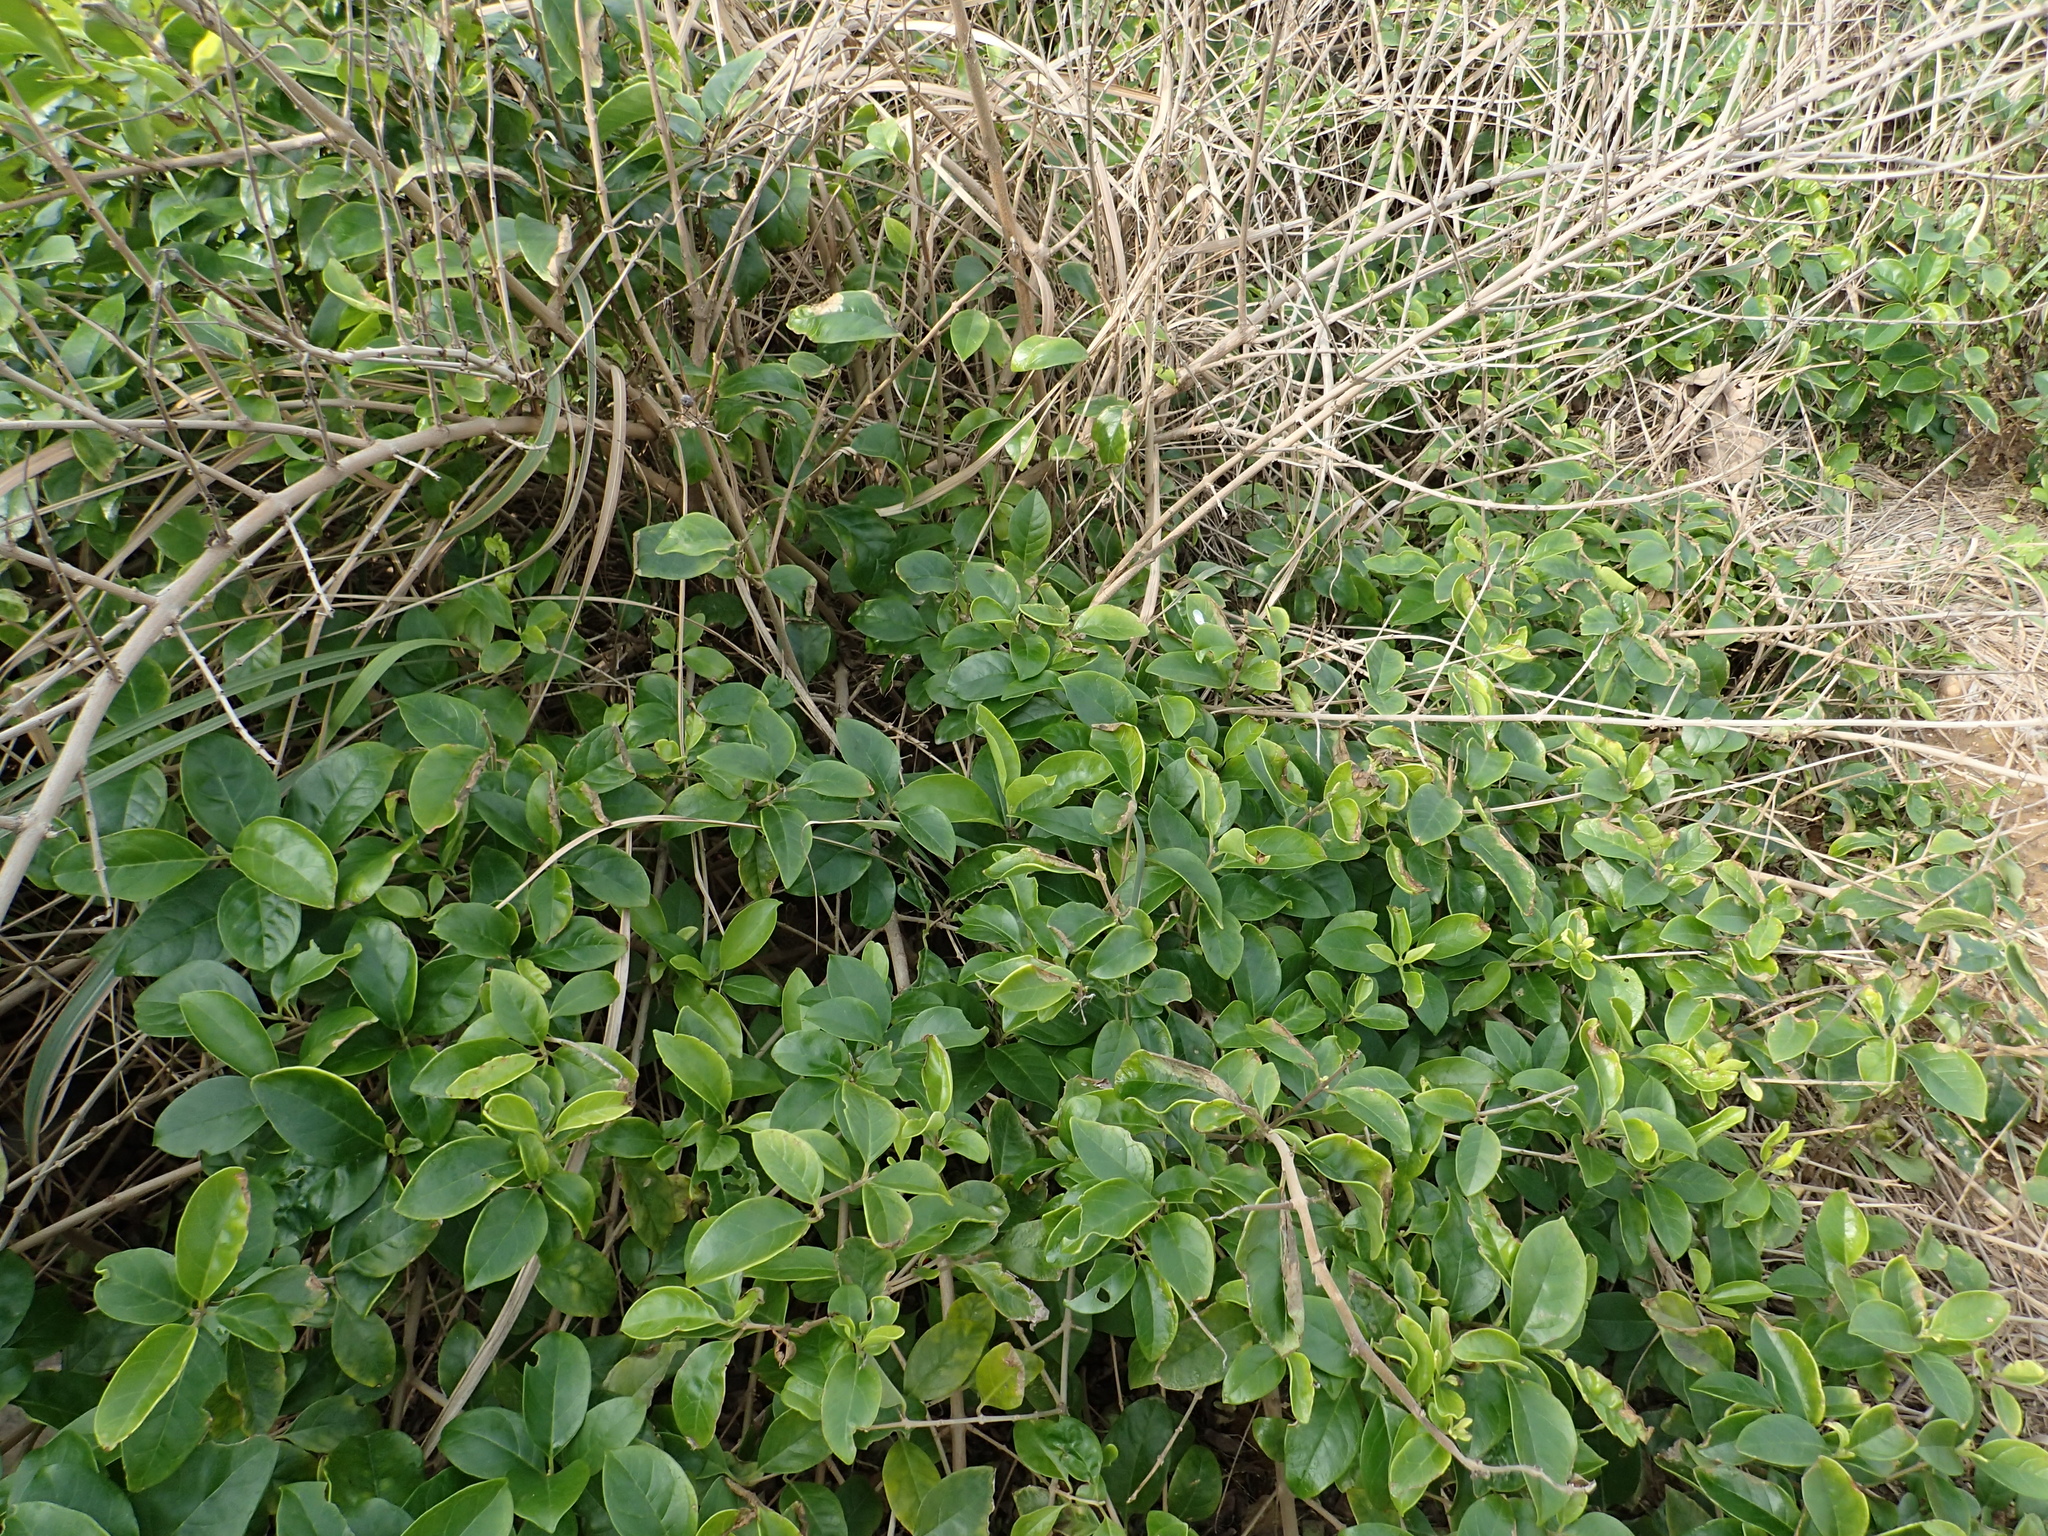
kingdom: Plantae
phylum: Tracheophyta
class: Magnoliopsida
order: Lamiales
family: Lamiaceae
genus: Volkameria
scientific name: Volkameria inermis
